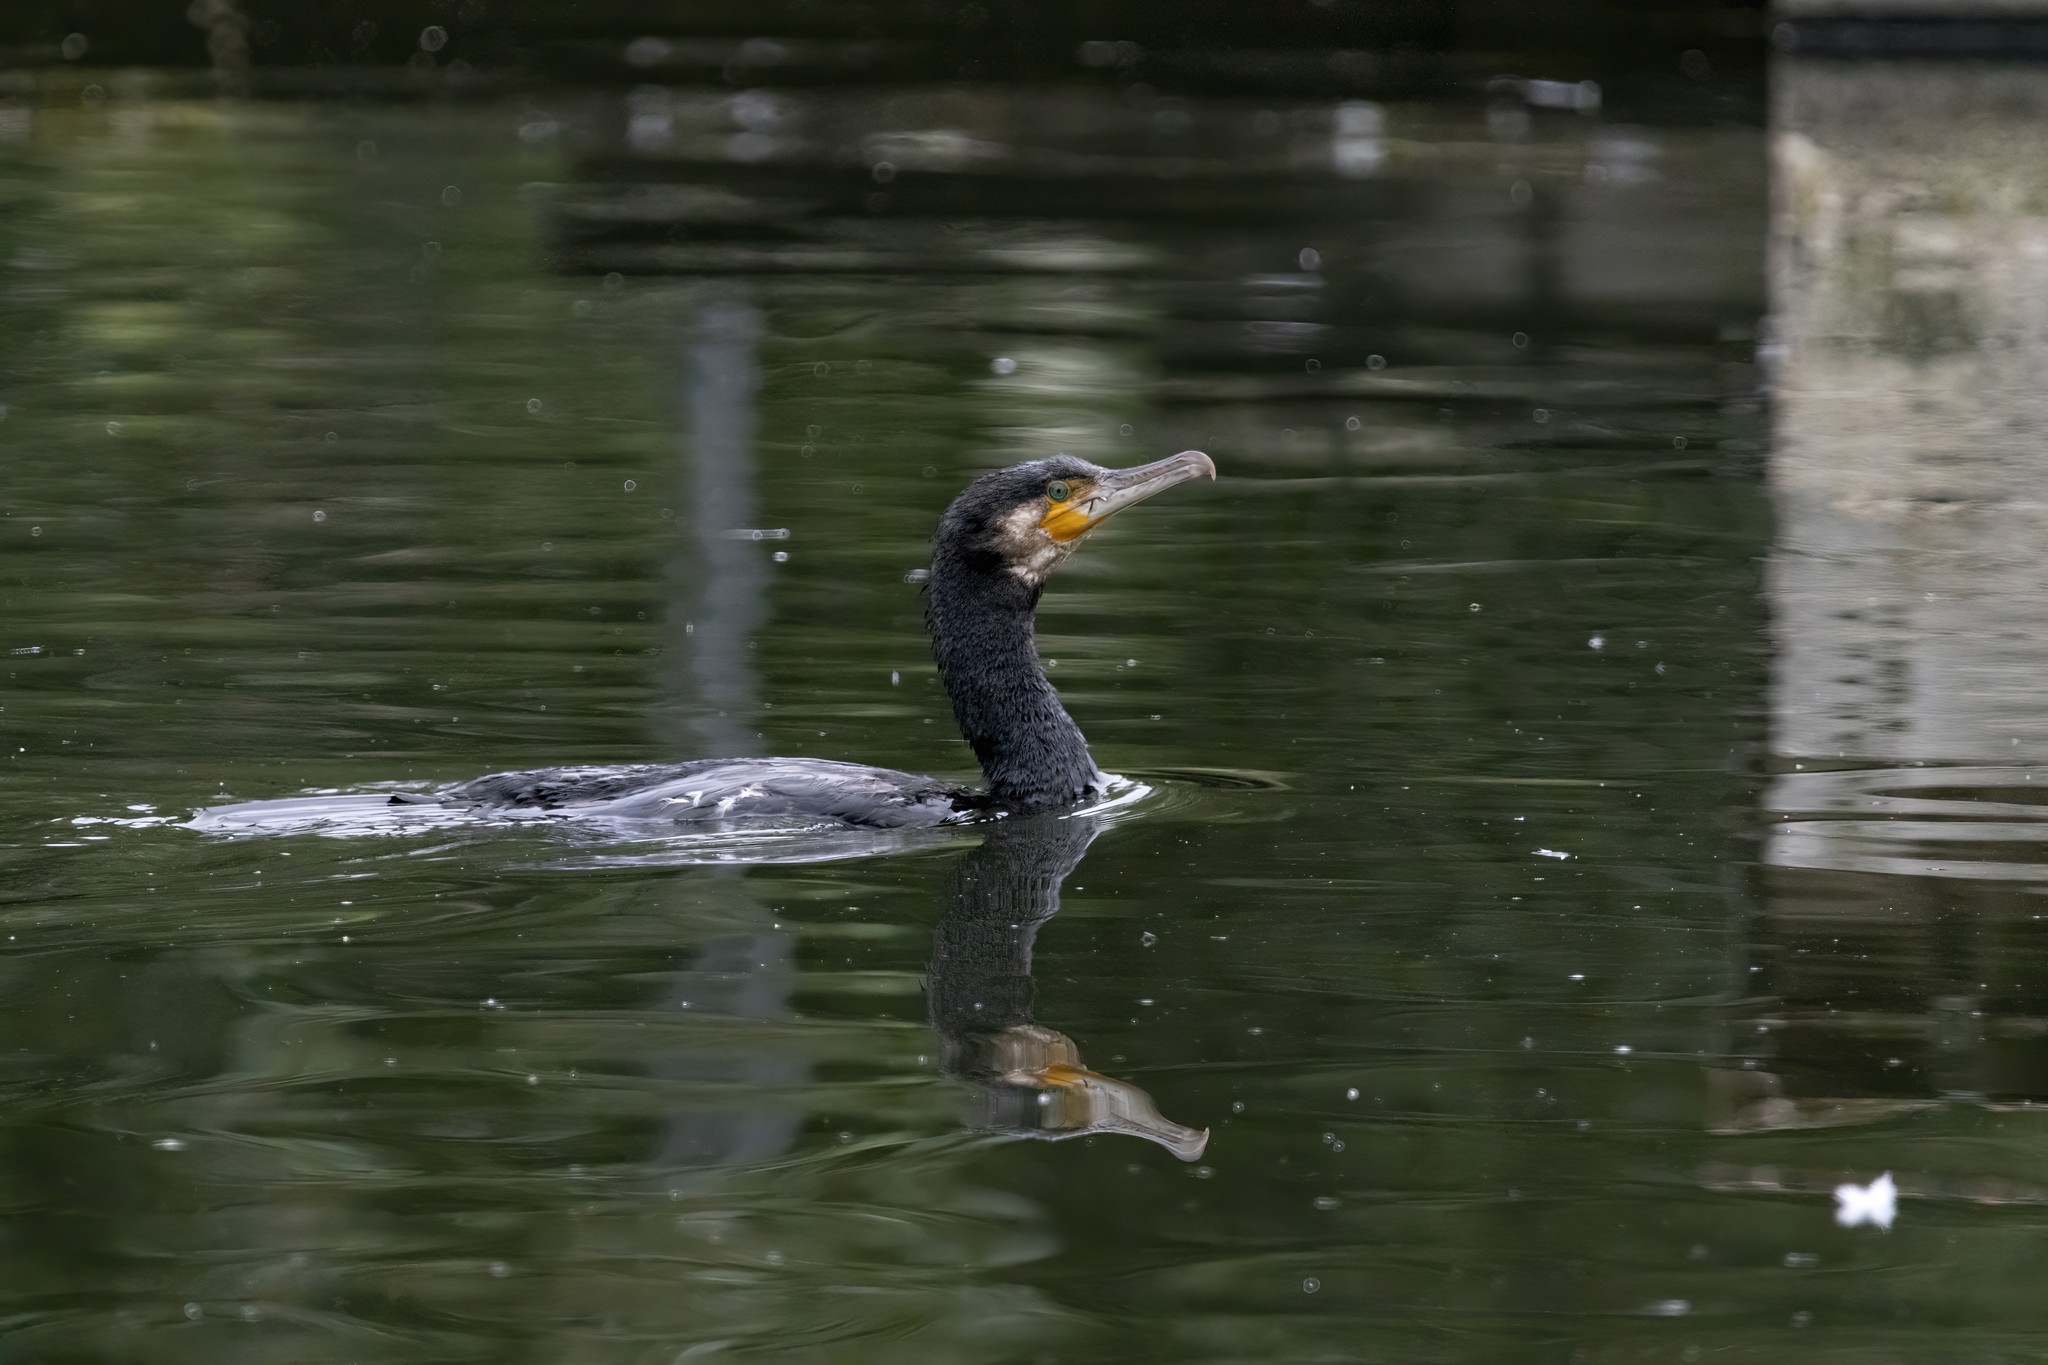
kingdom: Animalia
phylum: Chordata
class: Aves
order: Suliformes
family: Phalacrocoracidae
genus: Phalacrocorax
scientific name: Phalacrocorax carbo
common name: Great cormorant
